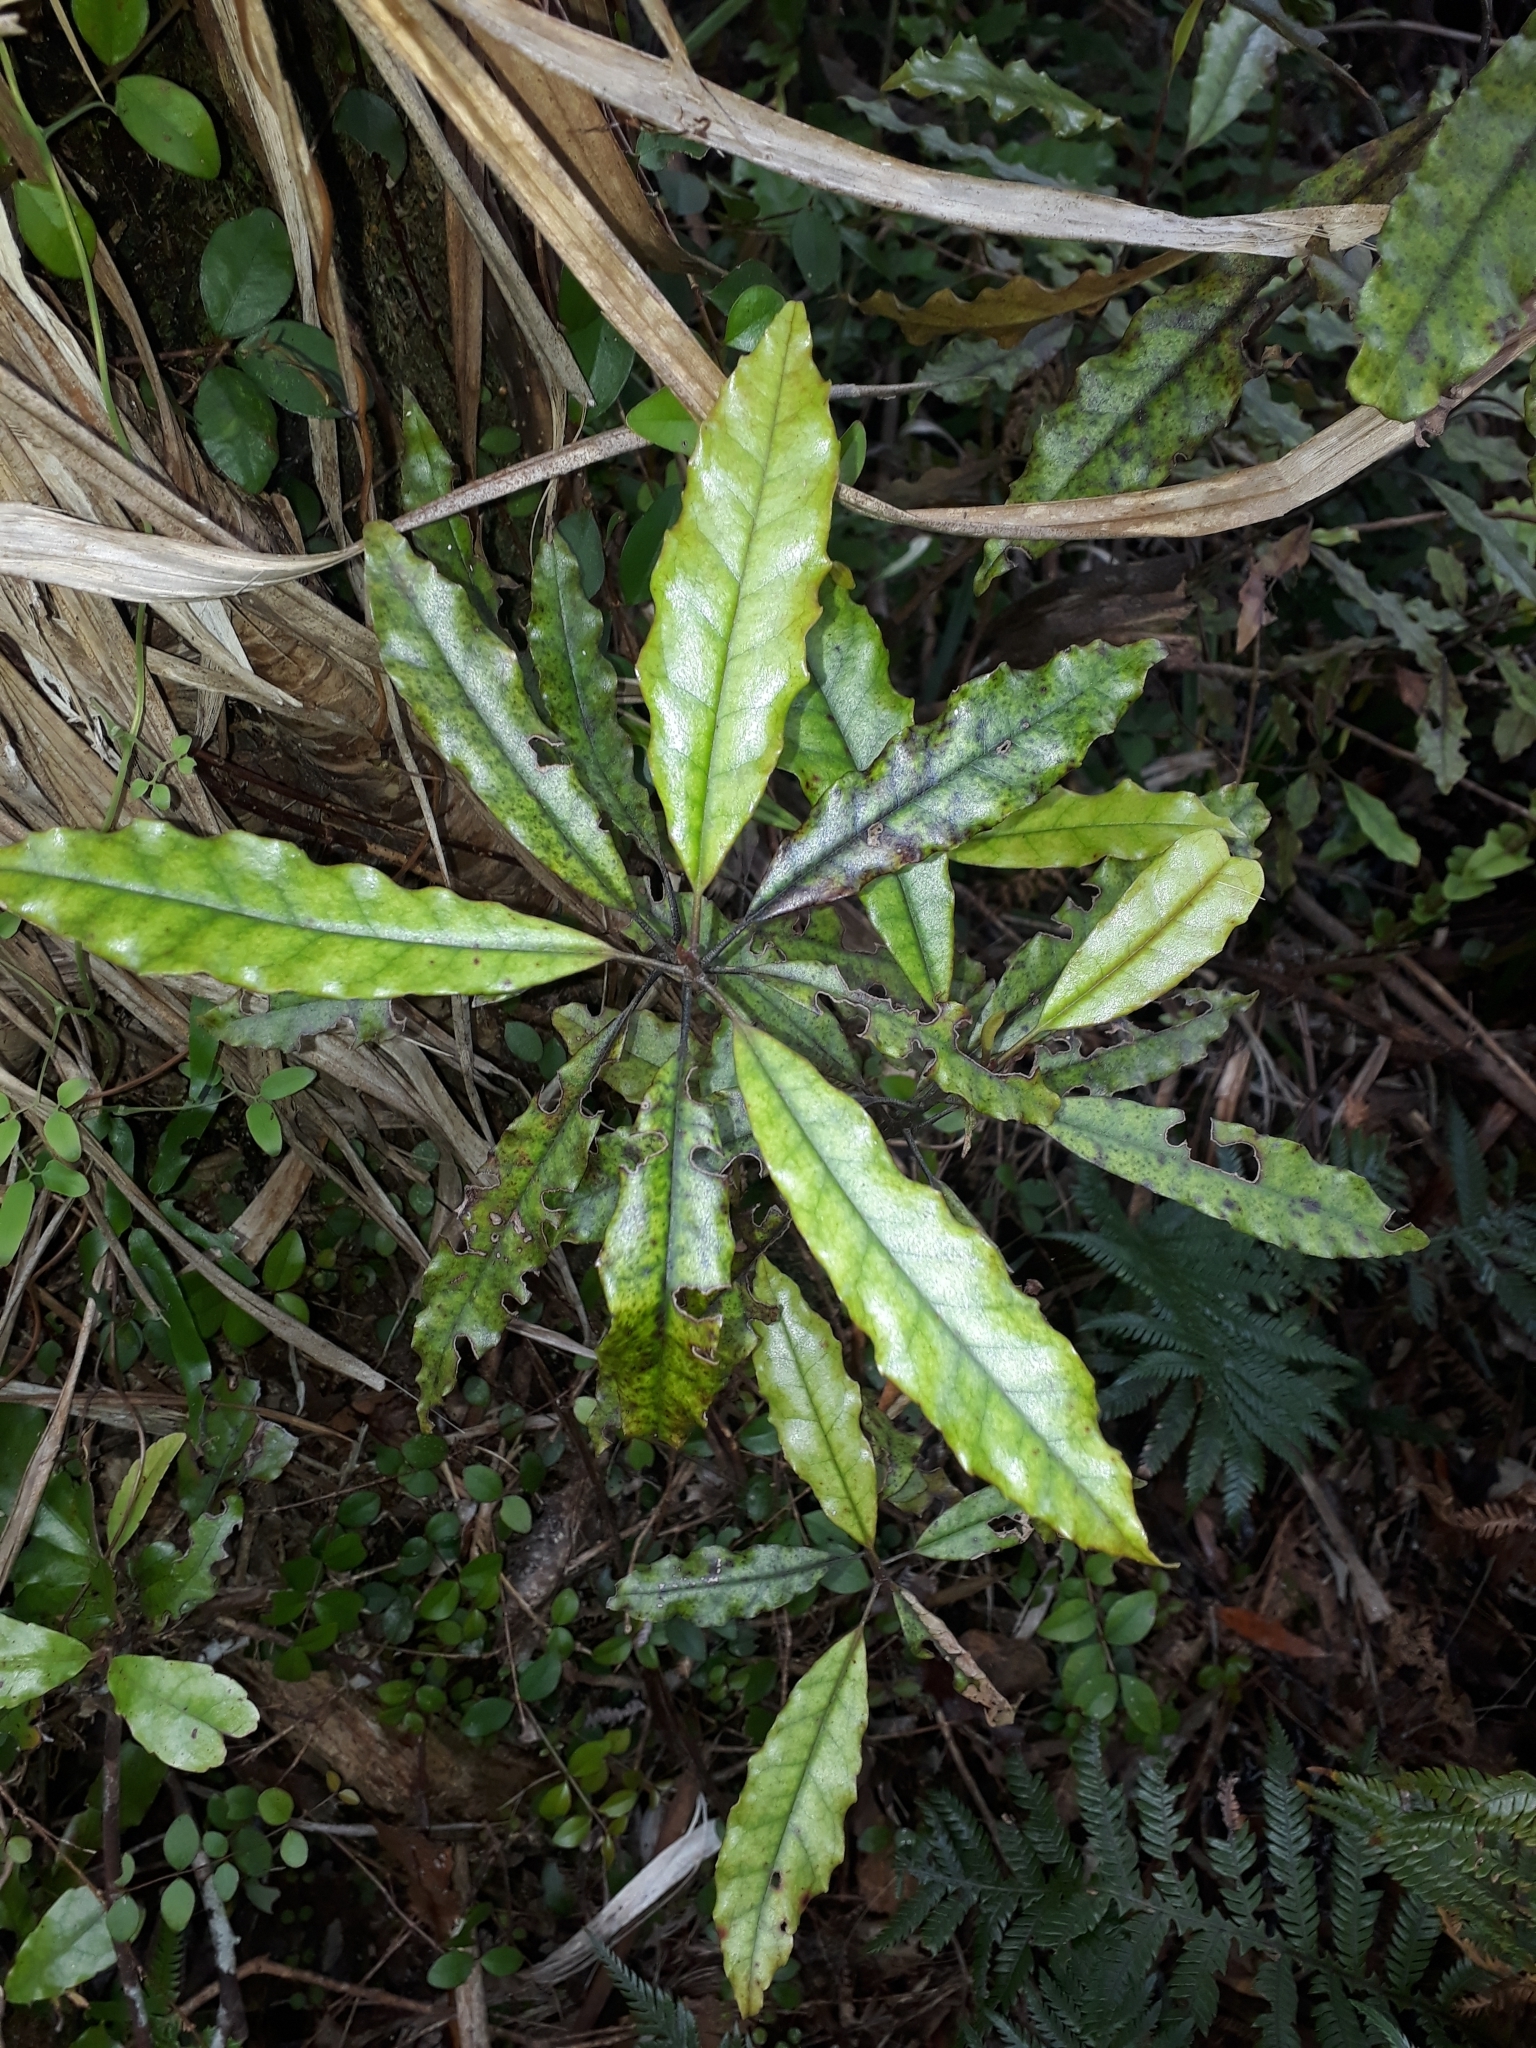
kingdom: Plantae
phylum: Tracheophyta
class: Magnoliopsida
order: Paracryphiales
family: Paracryphiaceae
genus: Quintinia
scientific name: Quintinia serrata
